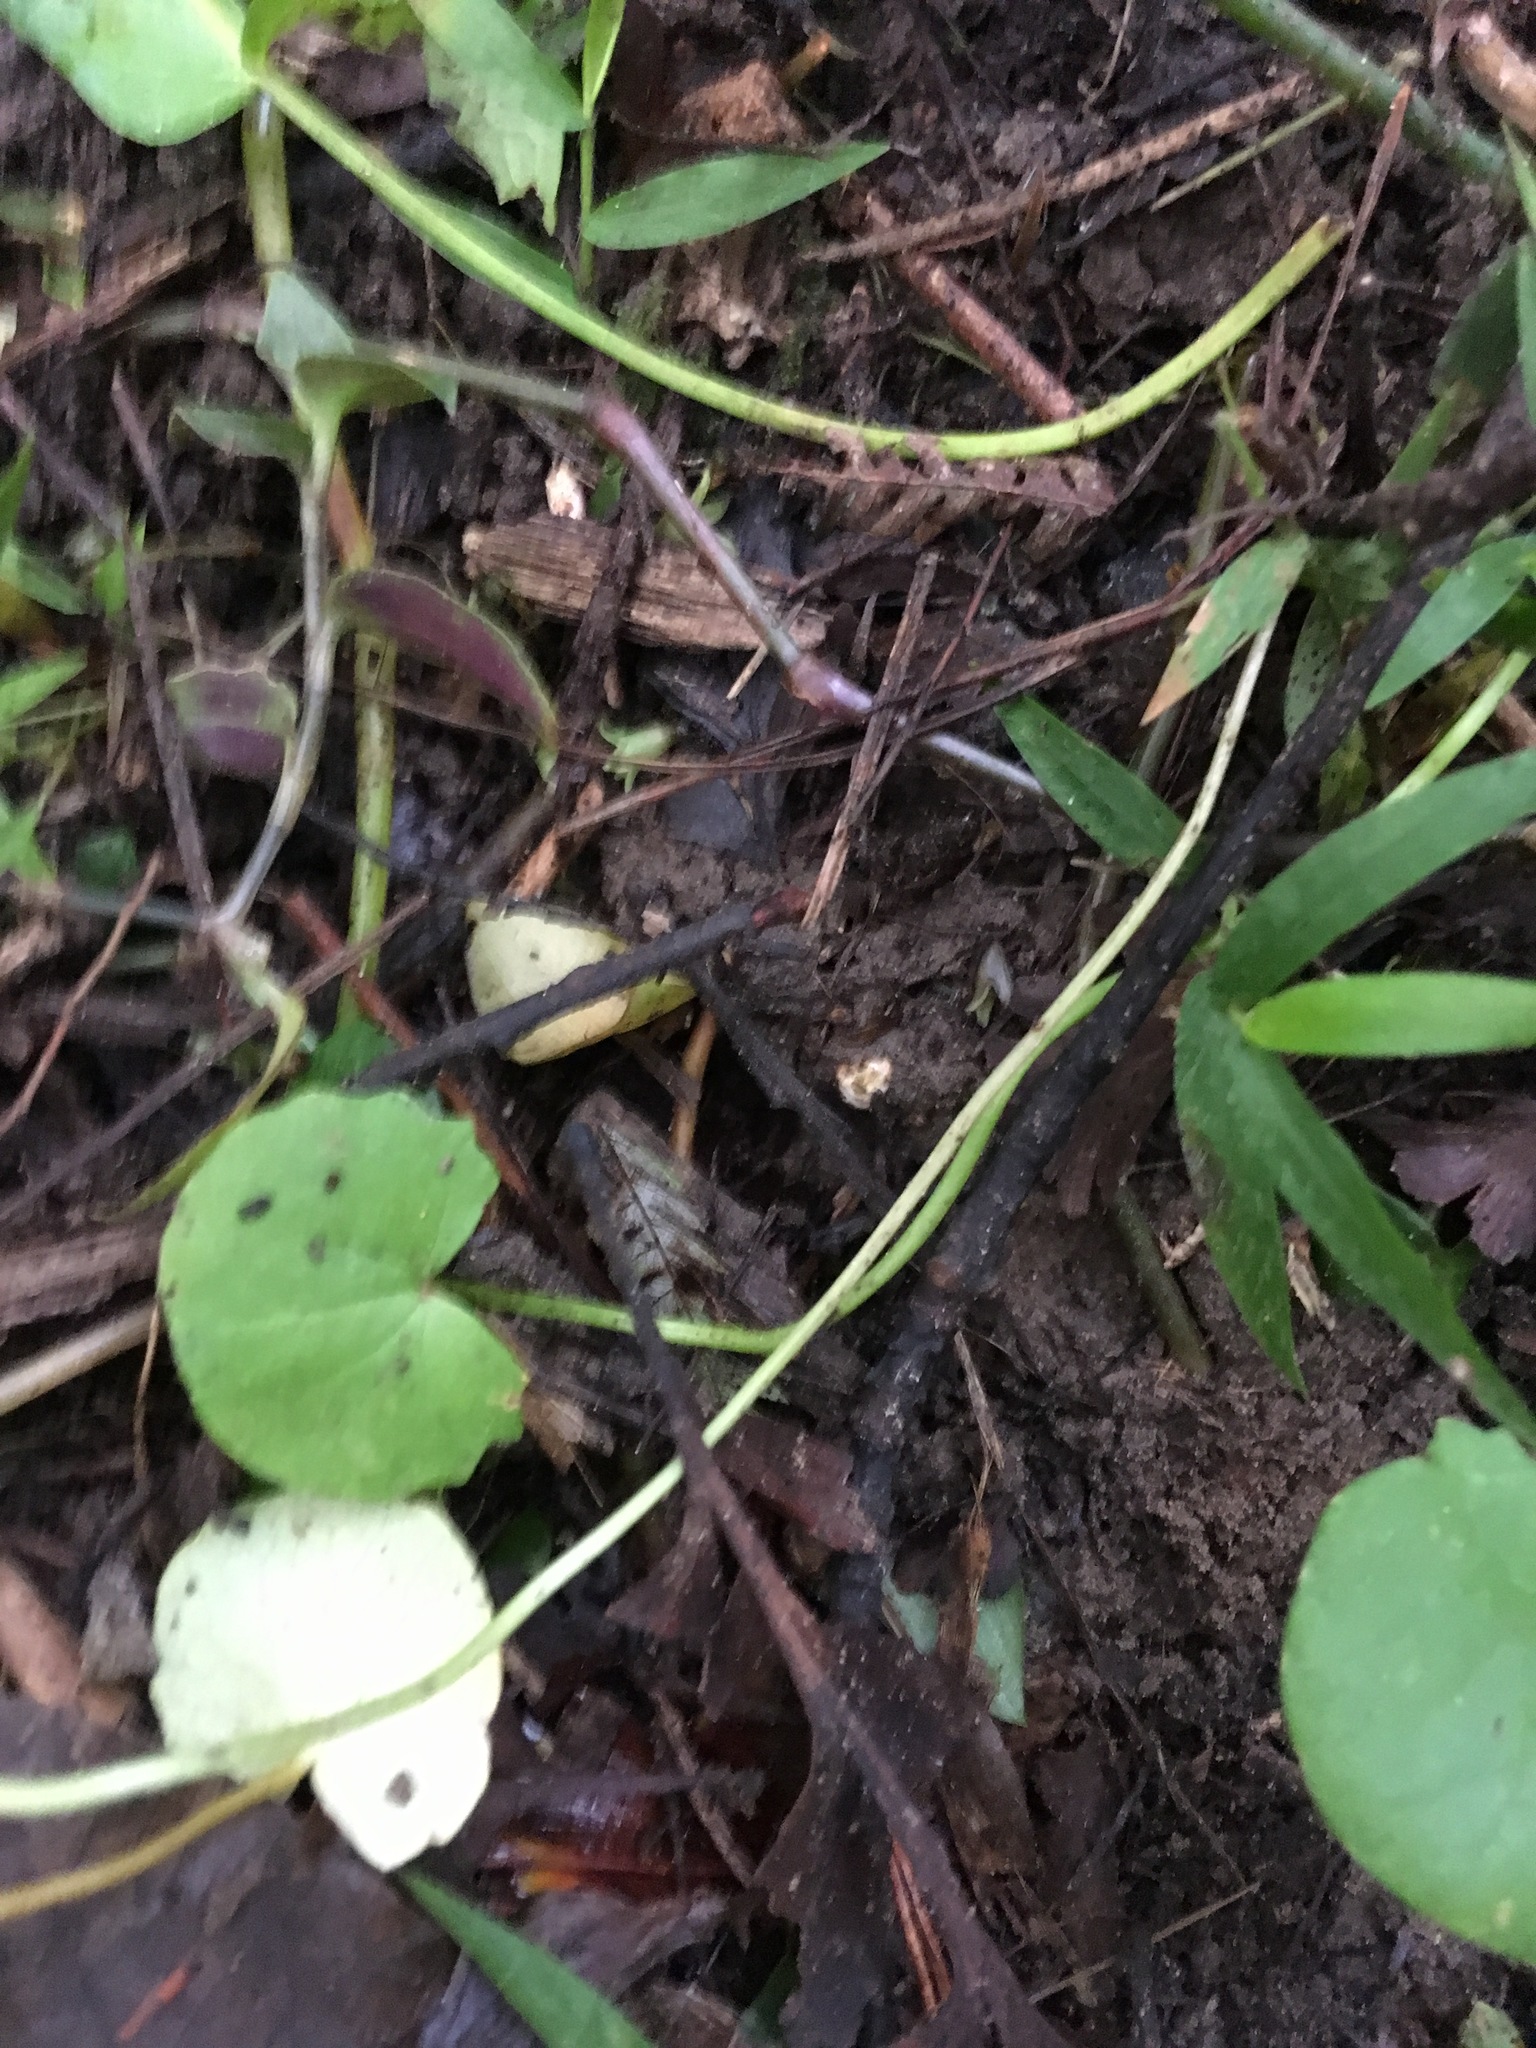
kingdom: Plantae
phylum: Tracheophyta
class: Magnoliopsida
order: Apiales
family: Apiaceae
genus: Centella
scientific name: Centella uniflora
